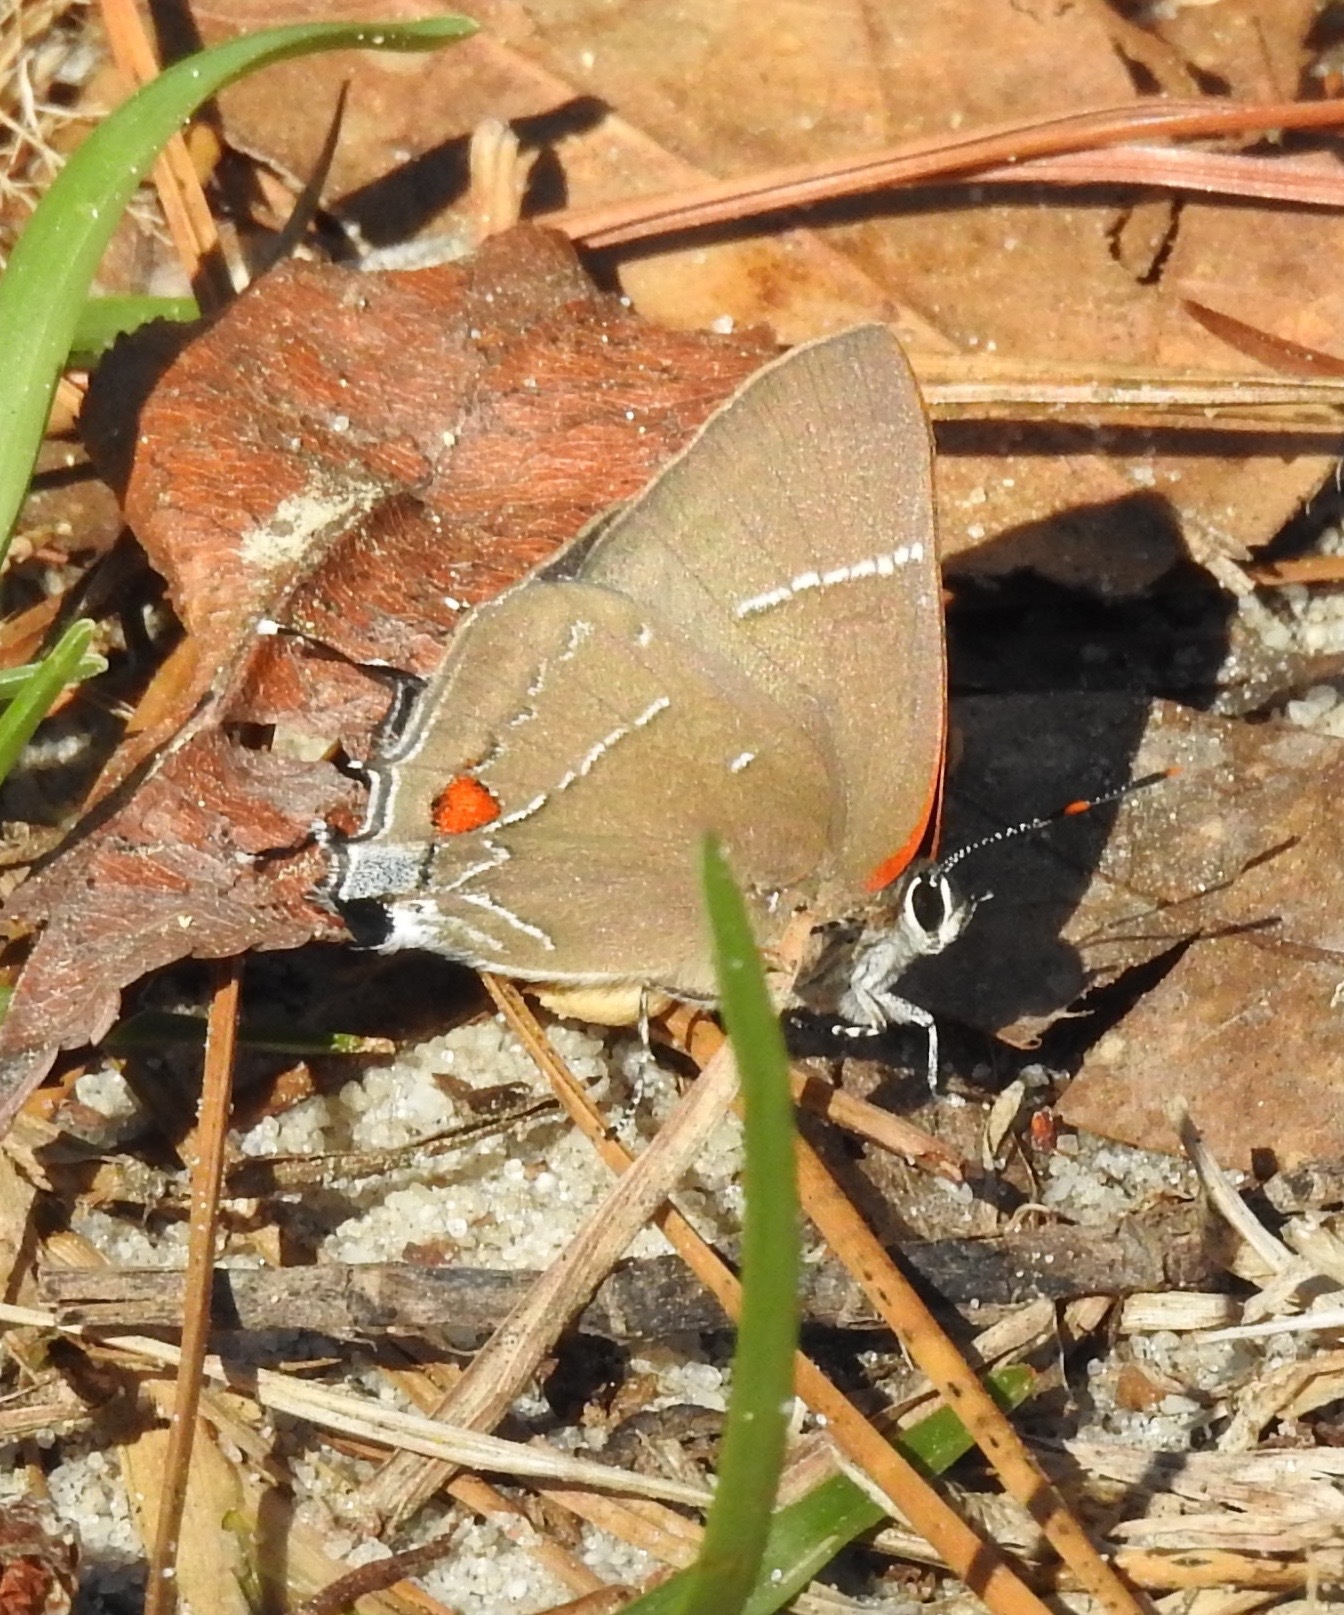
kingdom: Animalia
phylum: Arthropoda
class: Insecta
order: Lepidoptera
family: Lycaenidae
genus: Parrhasius
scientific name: Parrhasius m-album
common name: White m hairstreak
